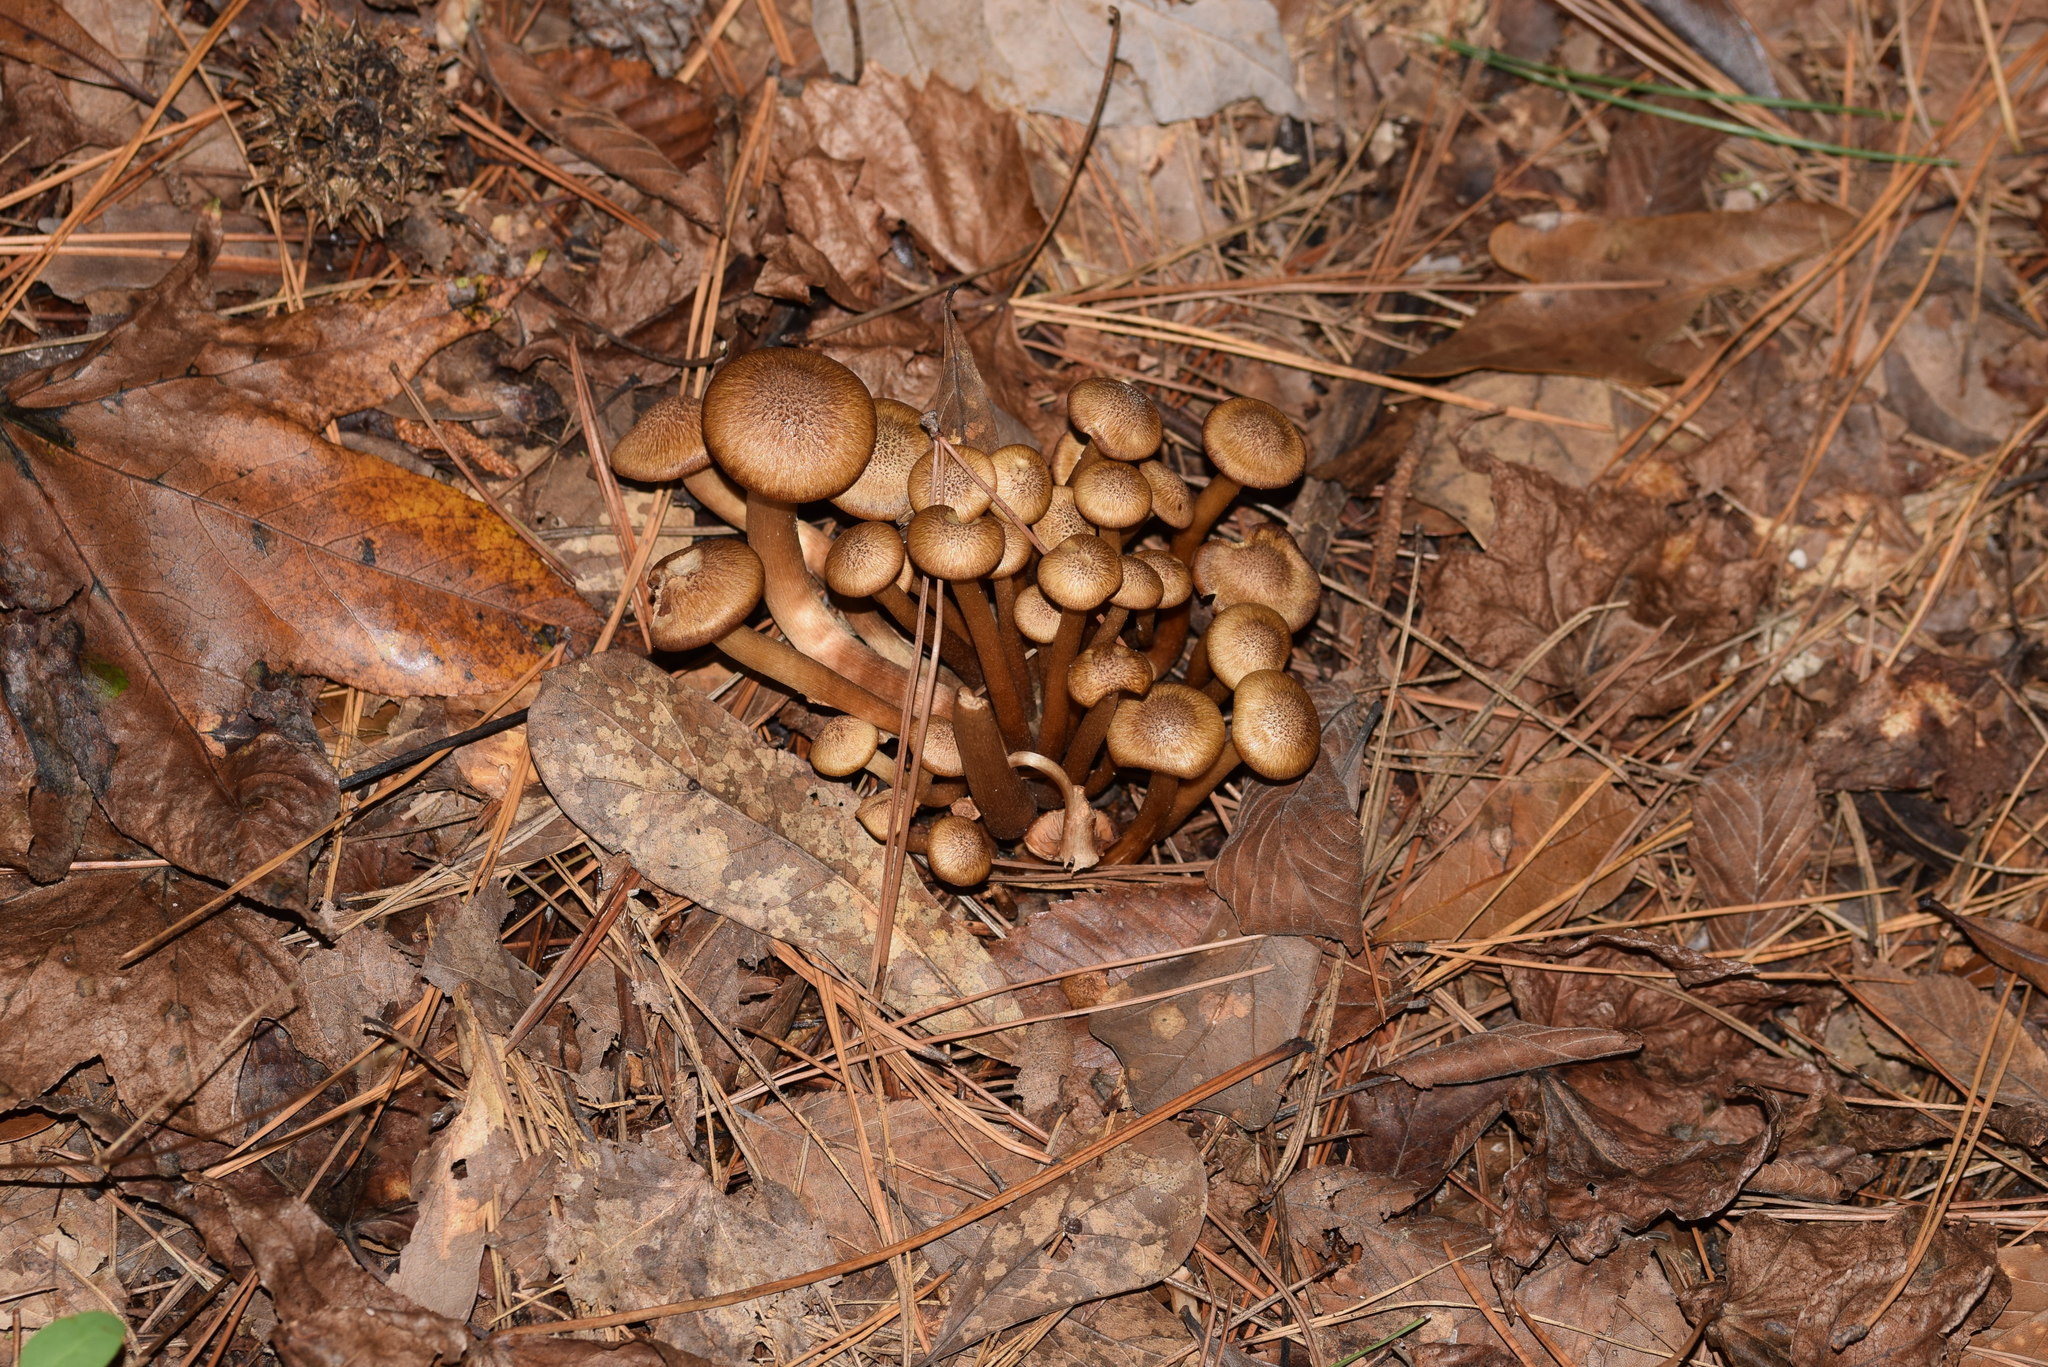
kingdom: Fungi
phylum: Basidiomycota
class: Agaricomycetes
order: Agaricales
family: Physalacriaceae
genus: Desarmillaria
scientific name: Desarmillaria caespitosa
